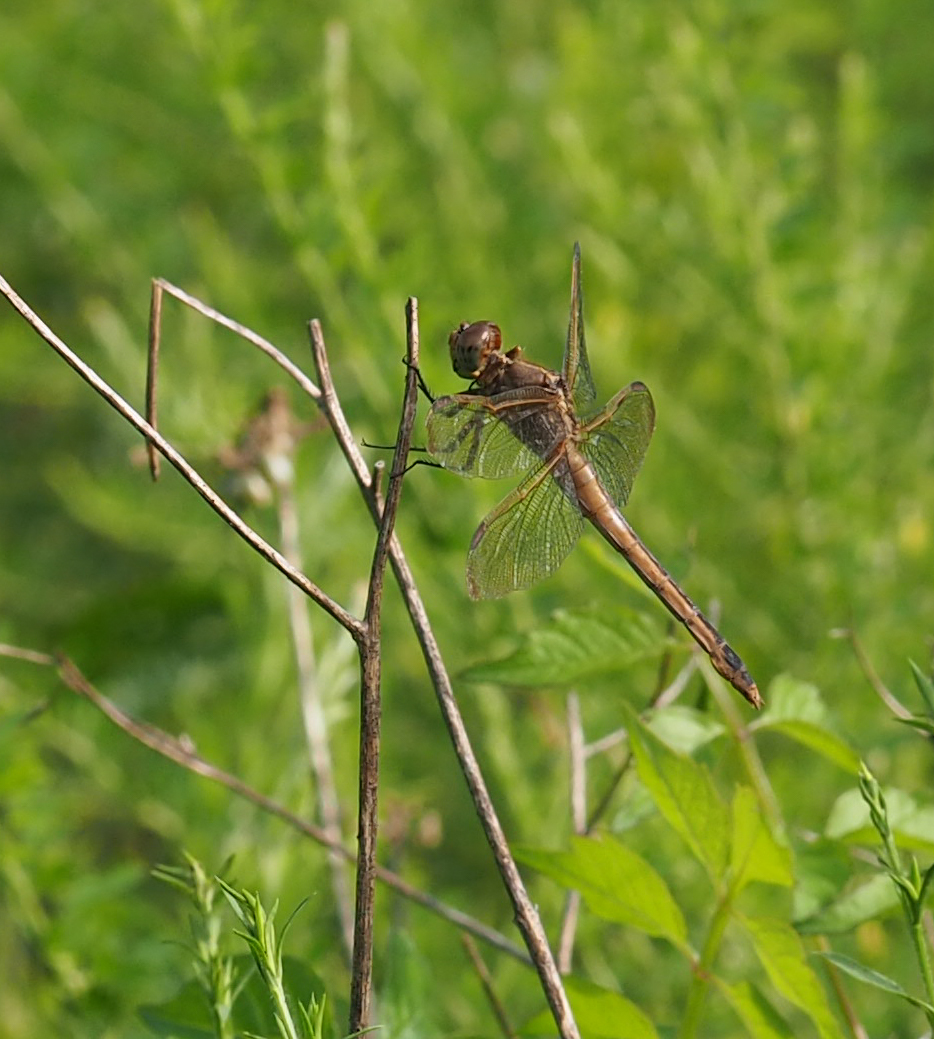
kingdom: Animalia
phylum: Arthropoda
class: Insecta
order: Odonata
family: Libellulidae
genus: Libellula
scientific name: Libellula needhami
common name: Needham's skimmer
